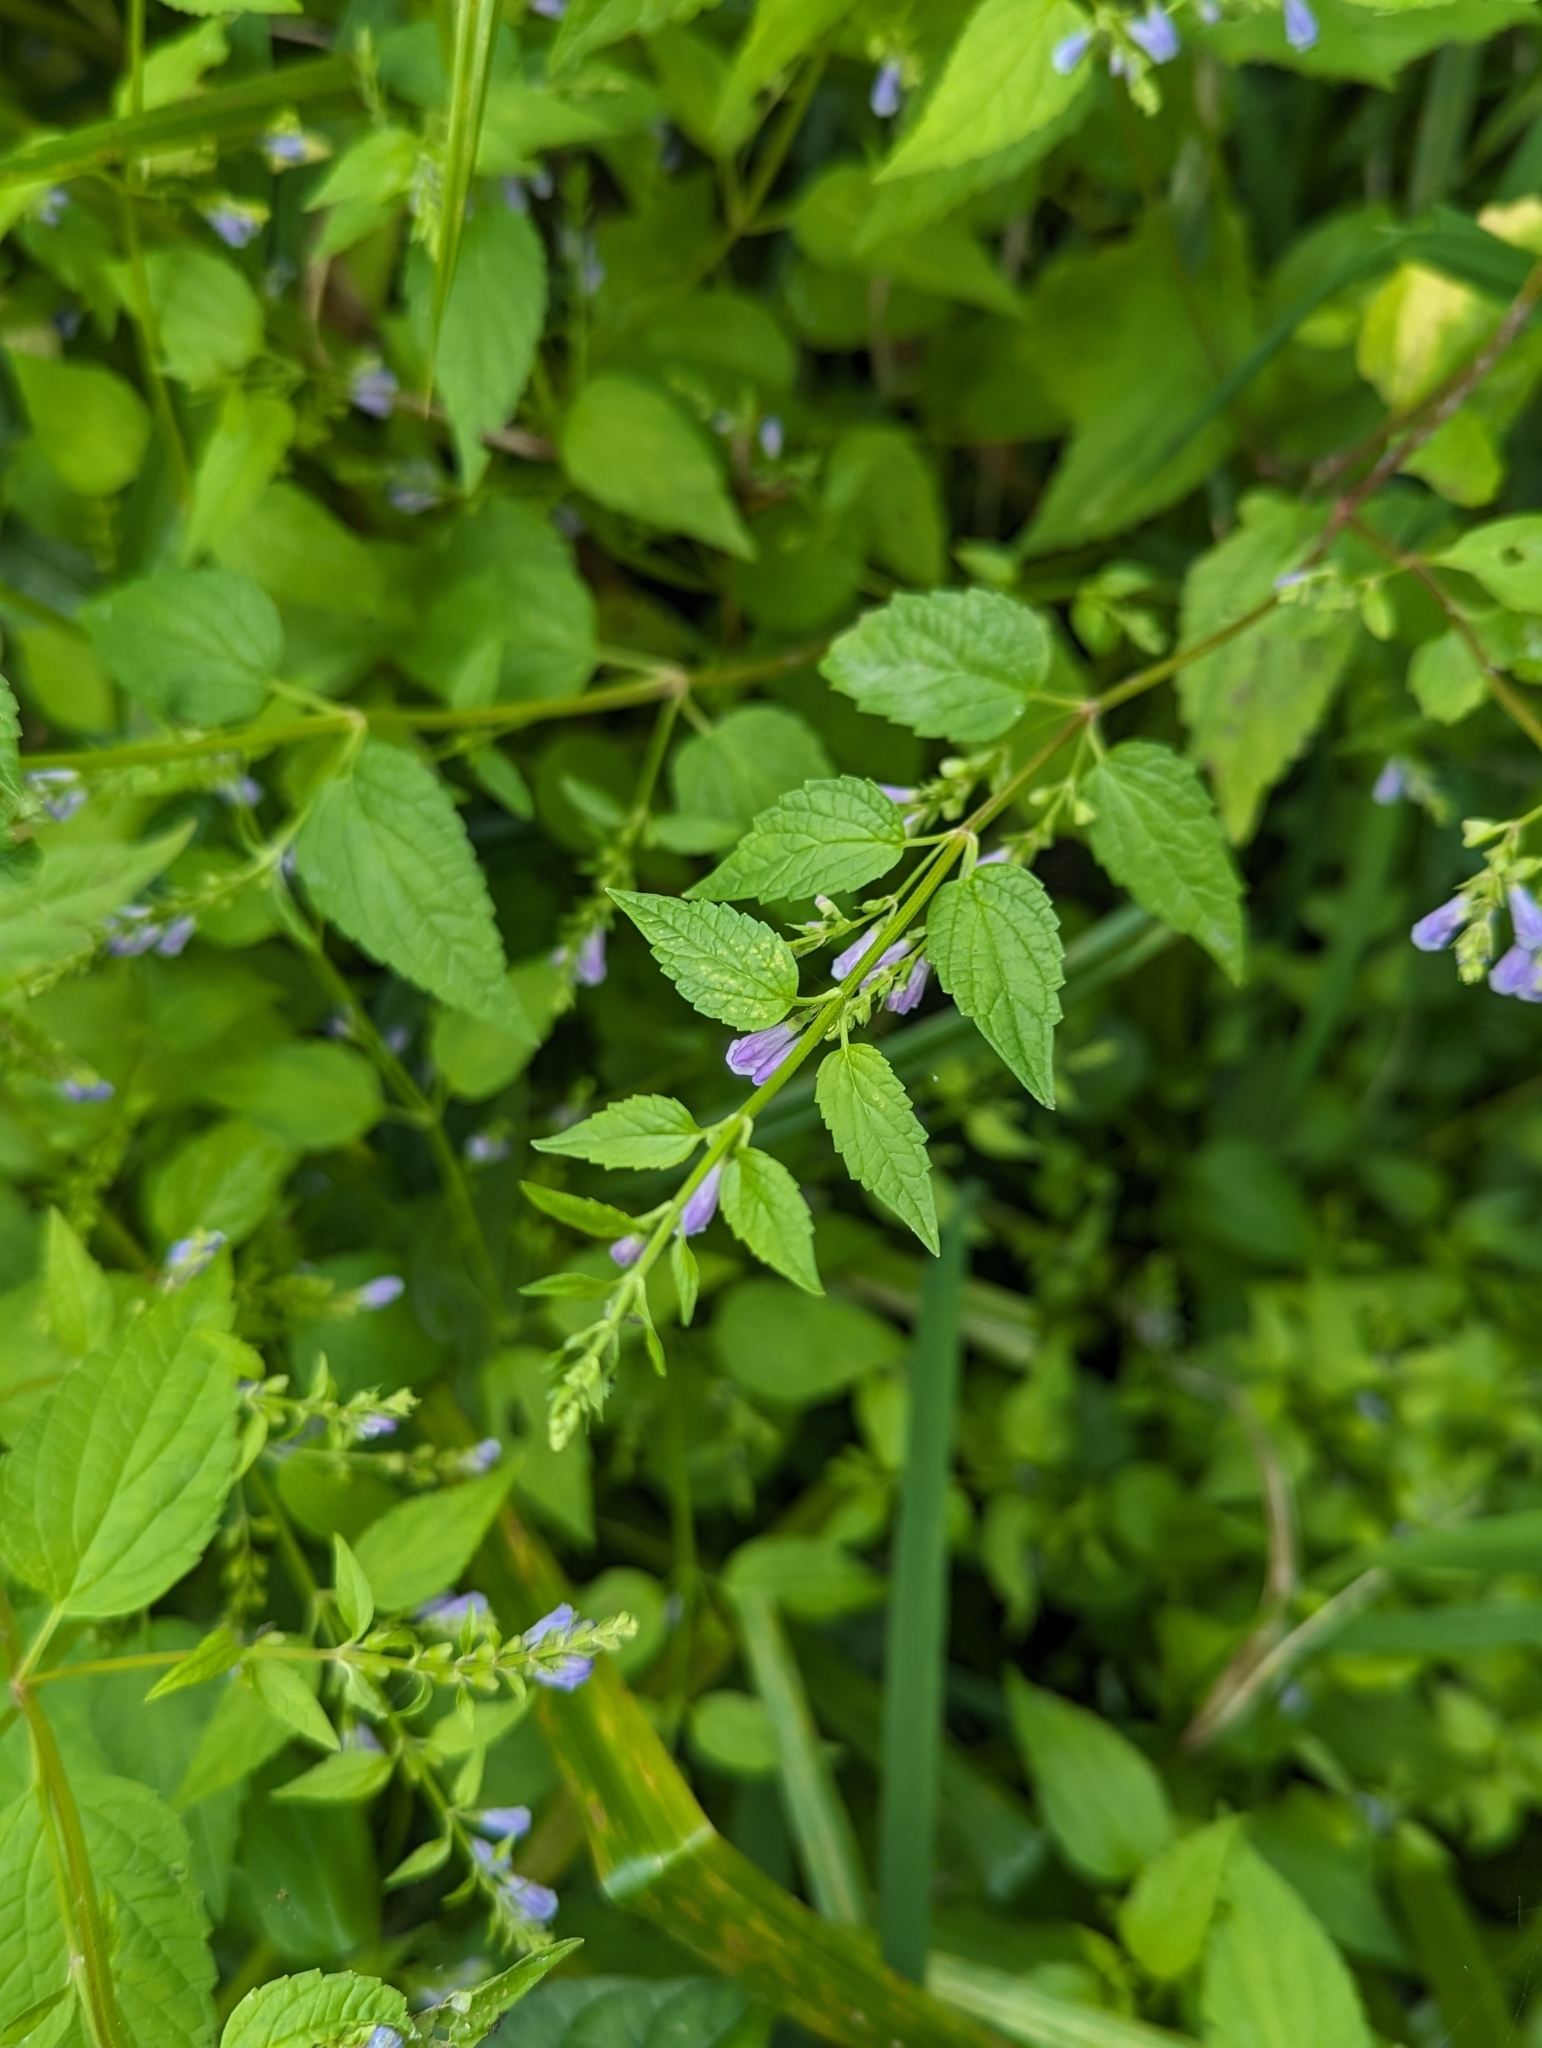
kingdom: Plantae
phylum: Tracheophyta
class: Magnoliopsida
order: Lamiales
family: Lamiaceae
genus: Scutellaria
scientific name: Scutellaria lateriflora
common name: Blue skullcap
